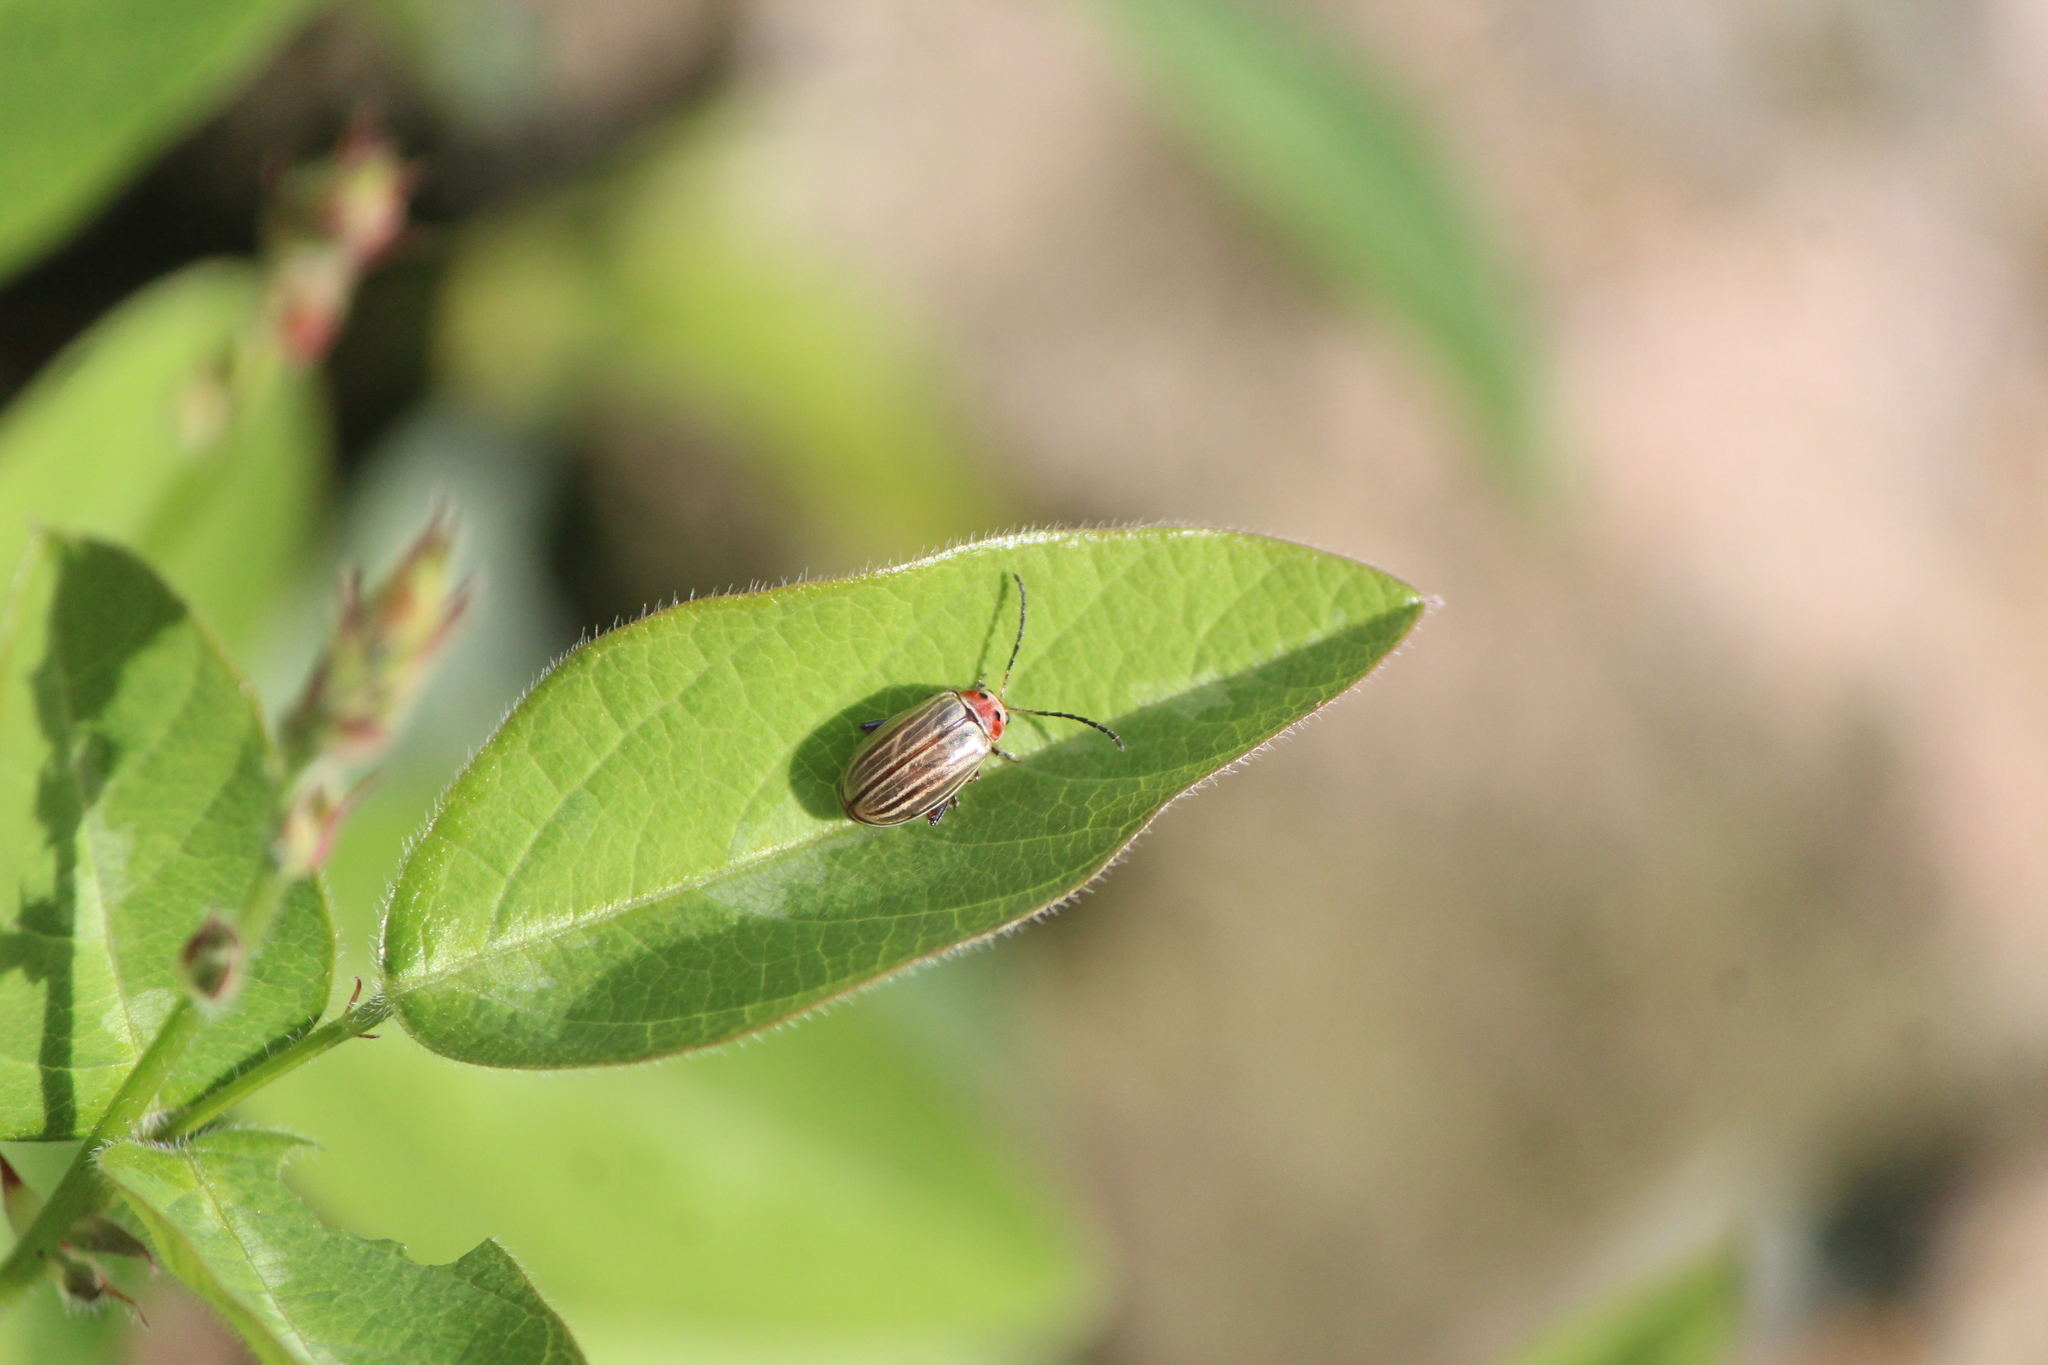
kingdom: Animalia
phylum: Arthropoda
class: Insecta
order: Coleoptera
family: Chrysomelidae
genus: Disonycha
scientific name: Disonycha
